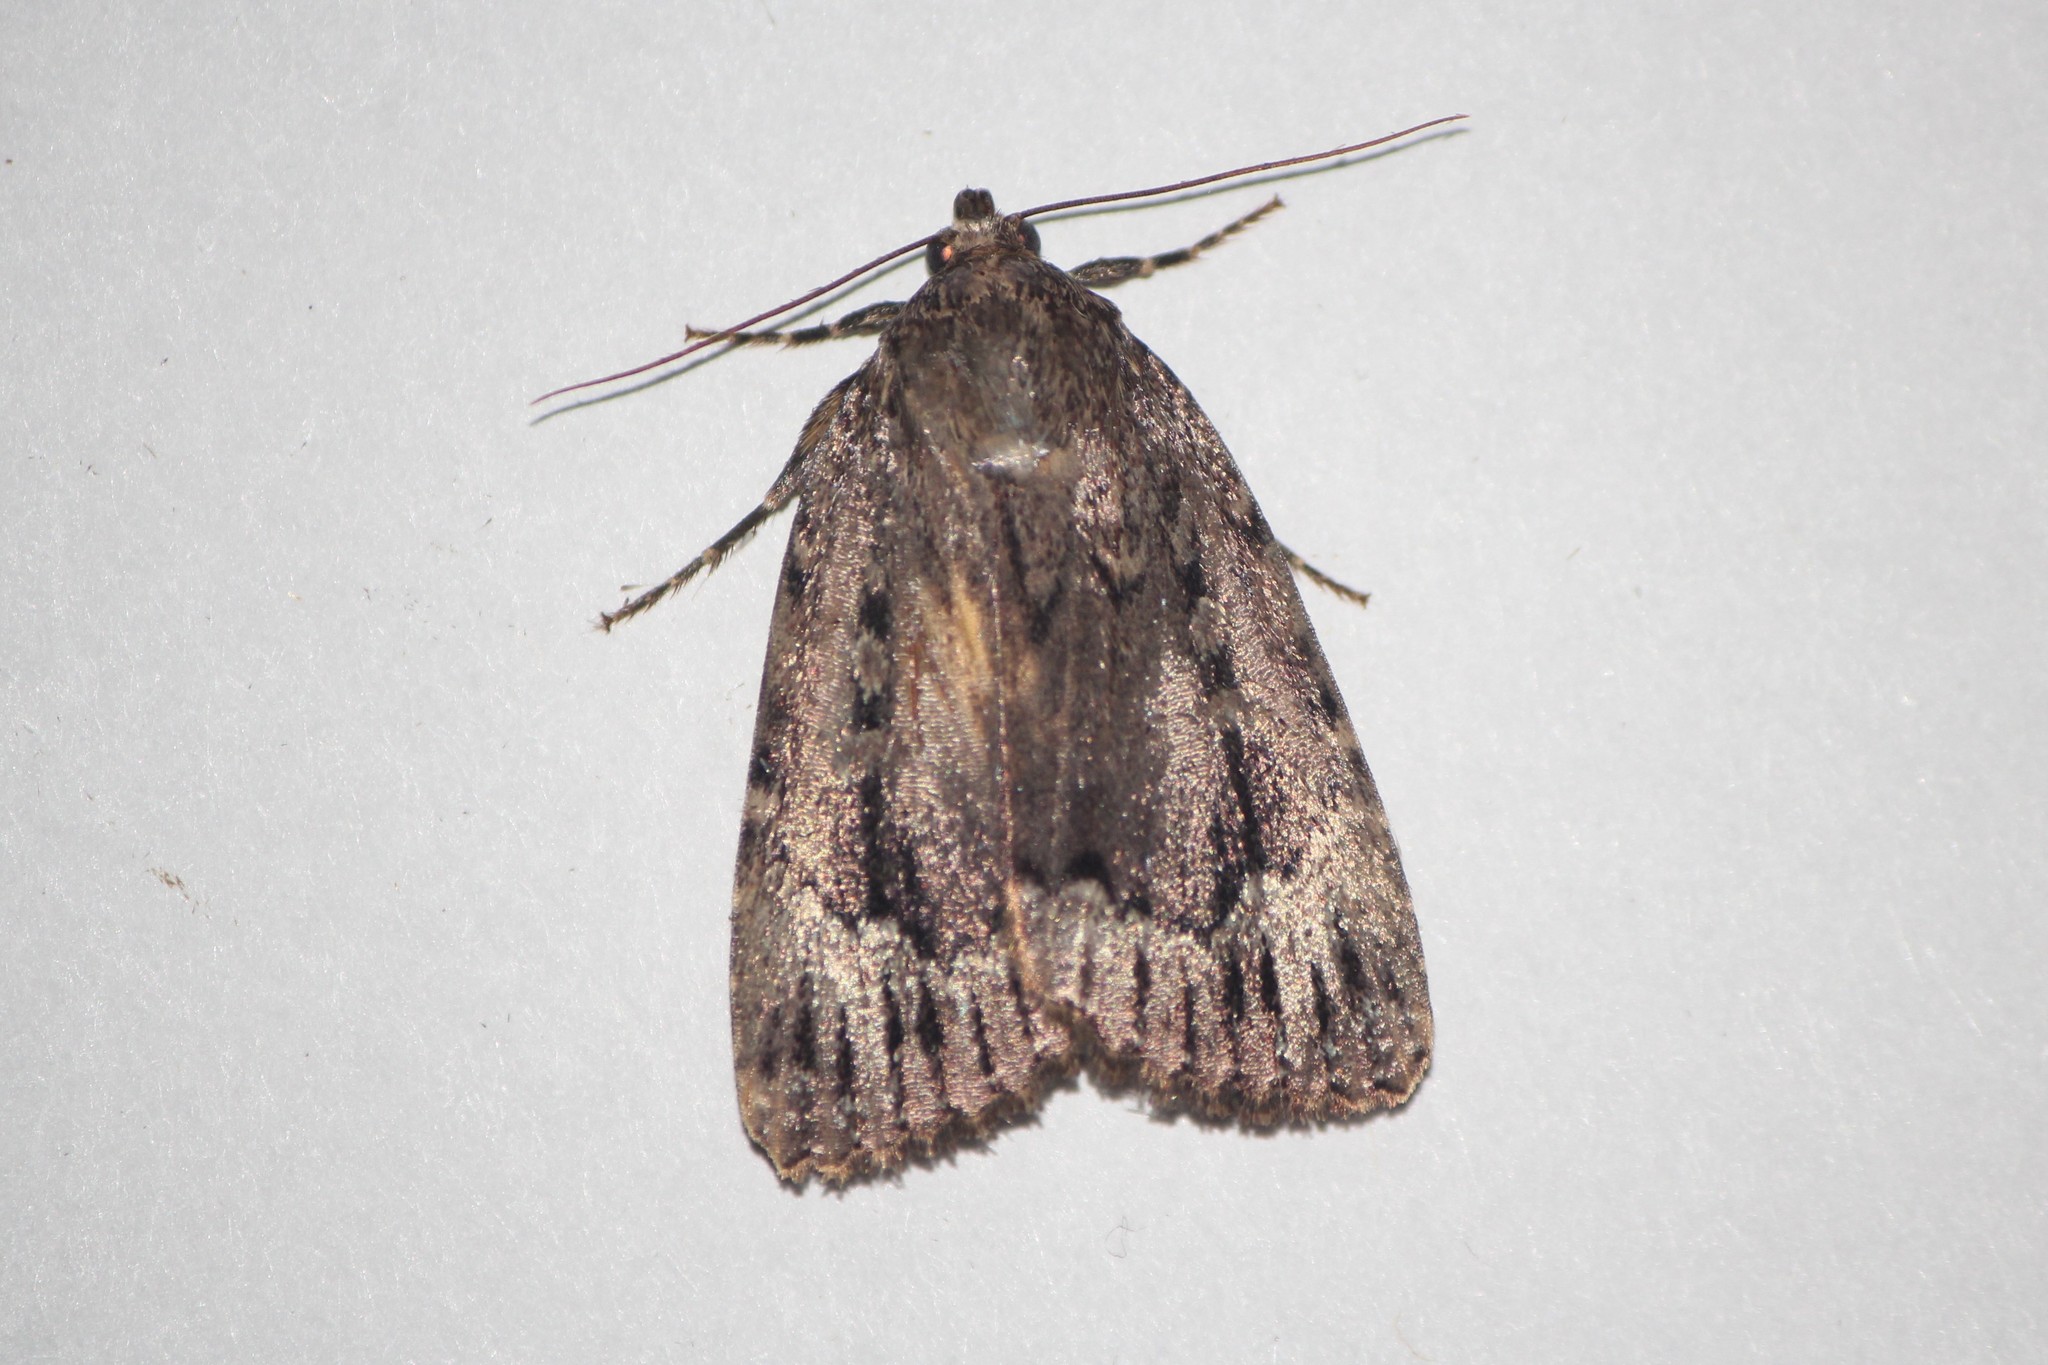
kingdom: Animalia
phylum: Arthropoda
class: Insecta
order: Lepidoptera
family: Noctuidae
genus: Amphipyra
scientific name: Amphipyra pyramidoides
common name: American copper underwing
